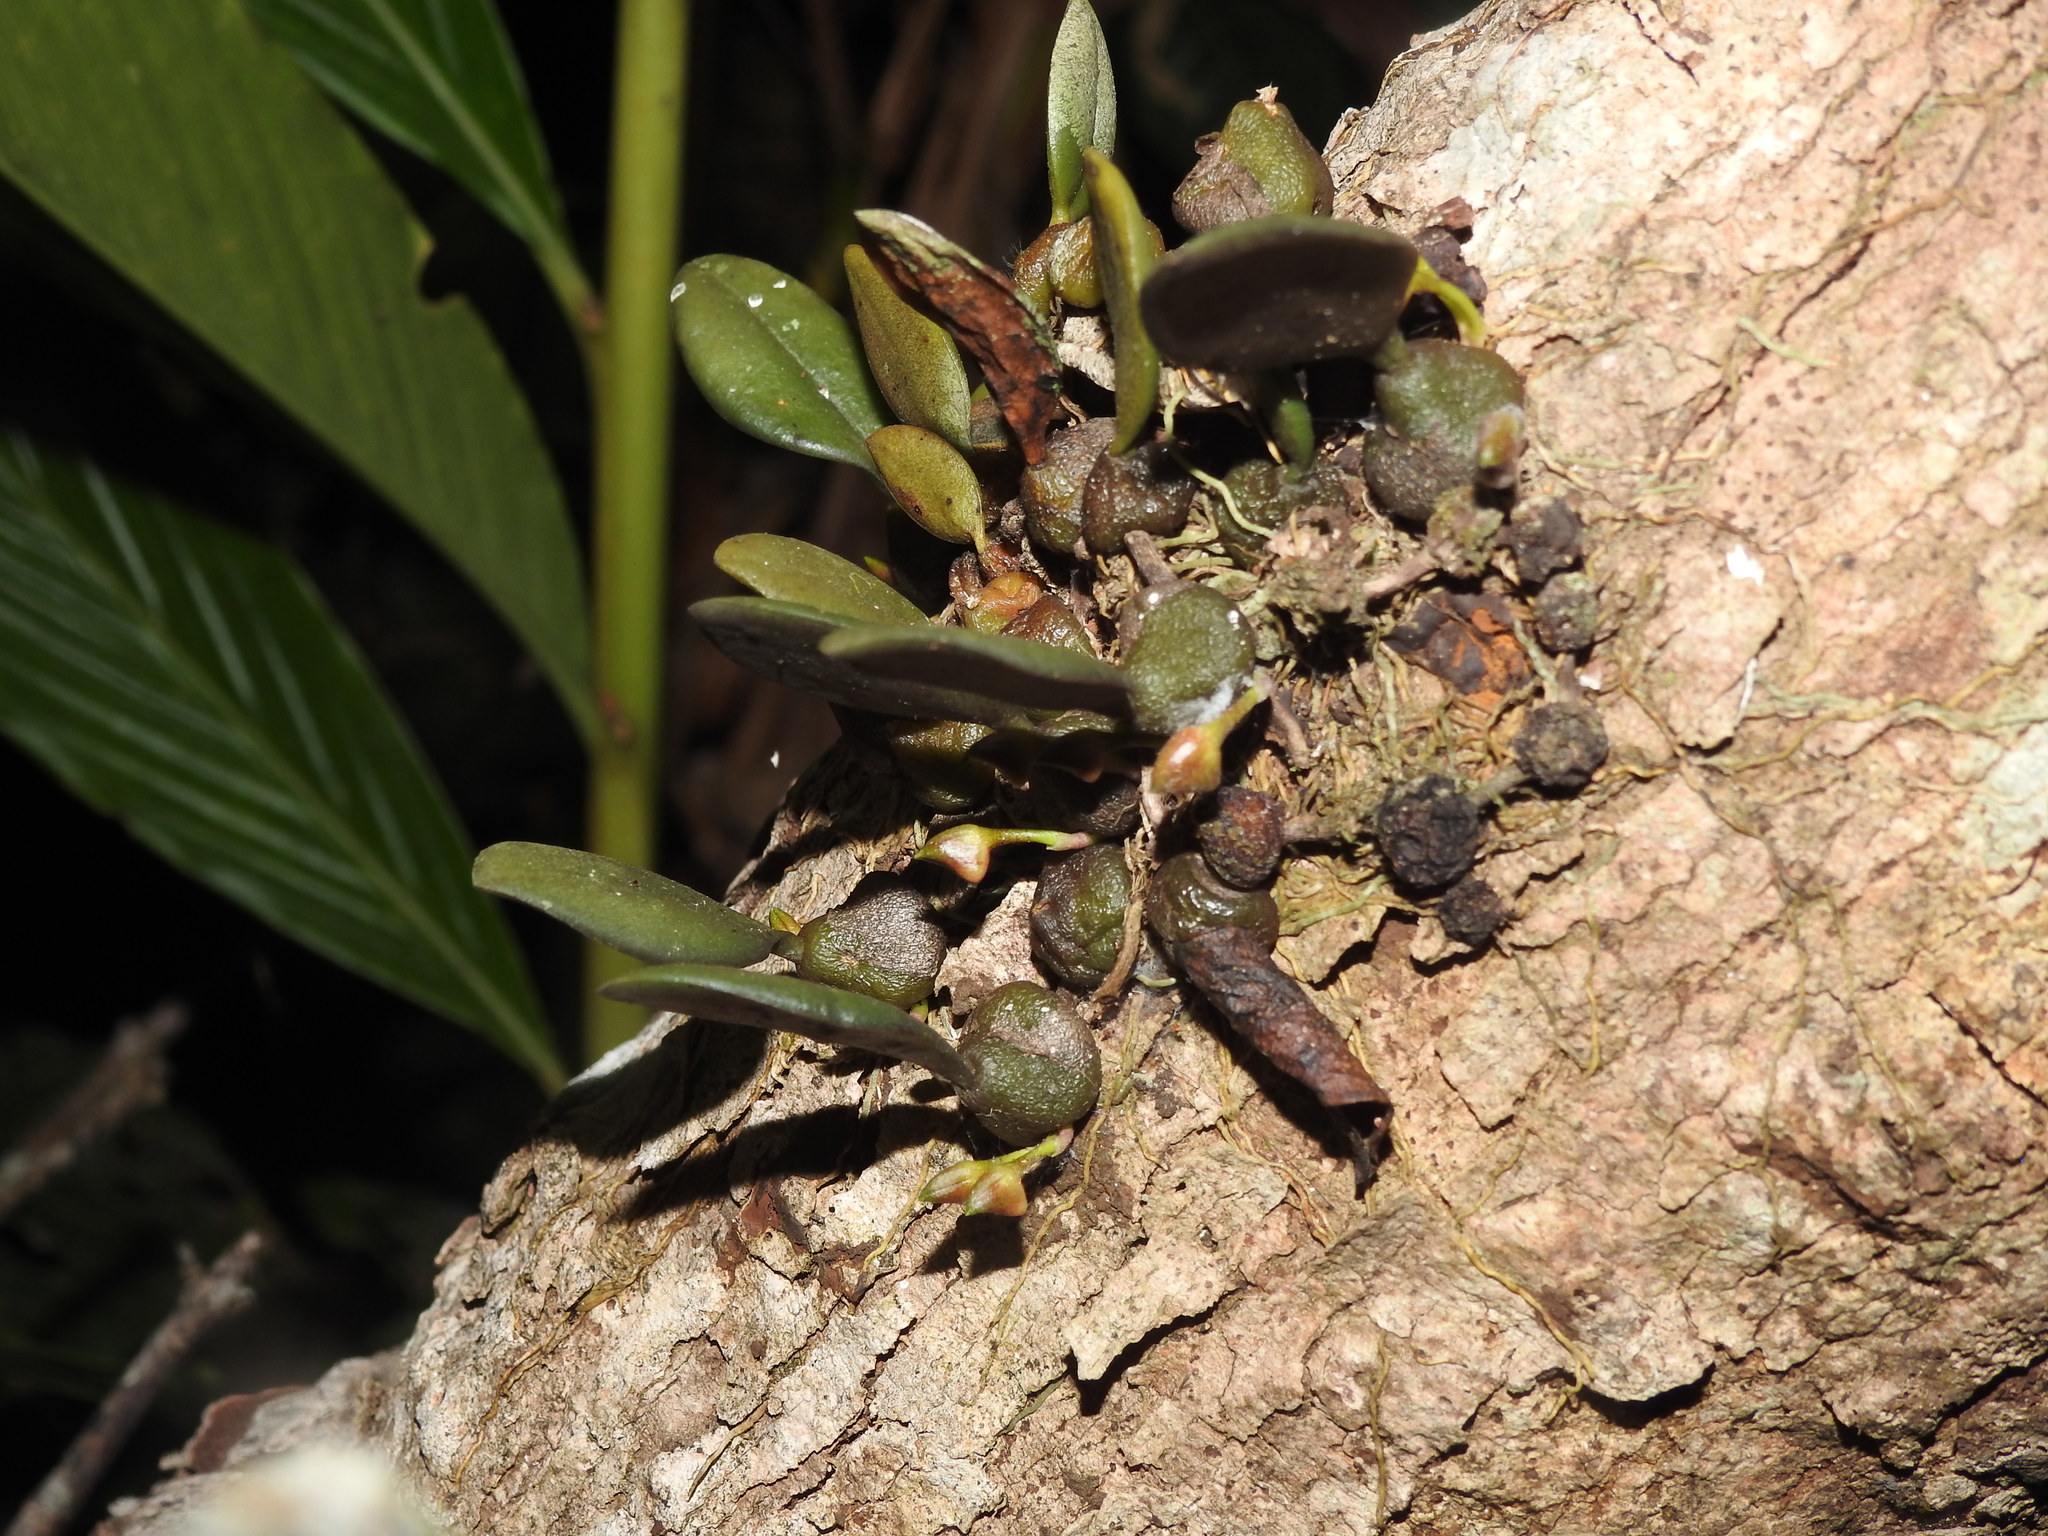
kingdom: Plantae
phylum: Tracheophyta
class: Liliopsida
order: Asparagales
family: Orchidaceae
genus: Bulbophyllum
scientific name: Bulbophyllum stocksii
